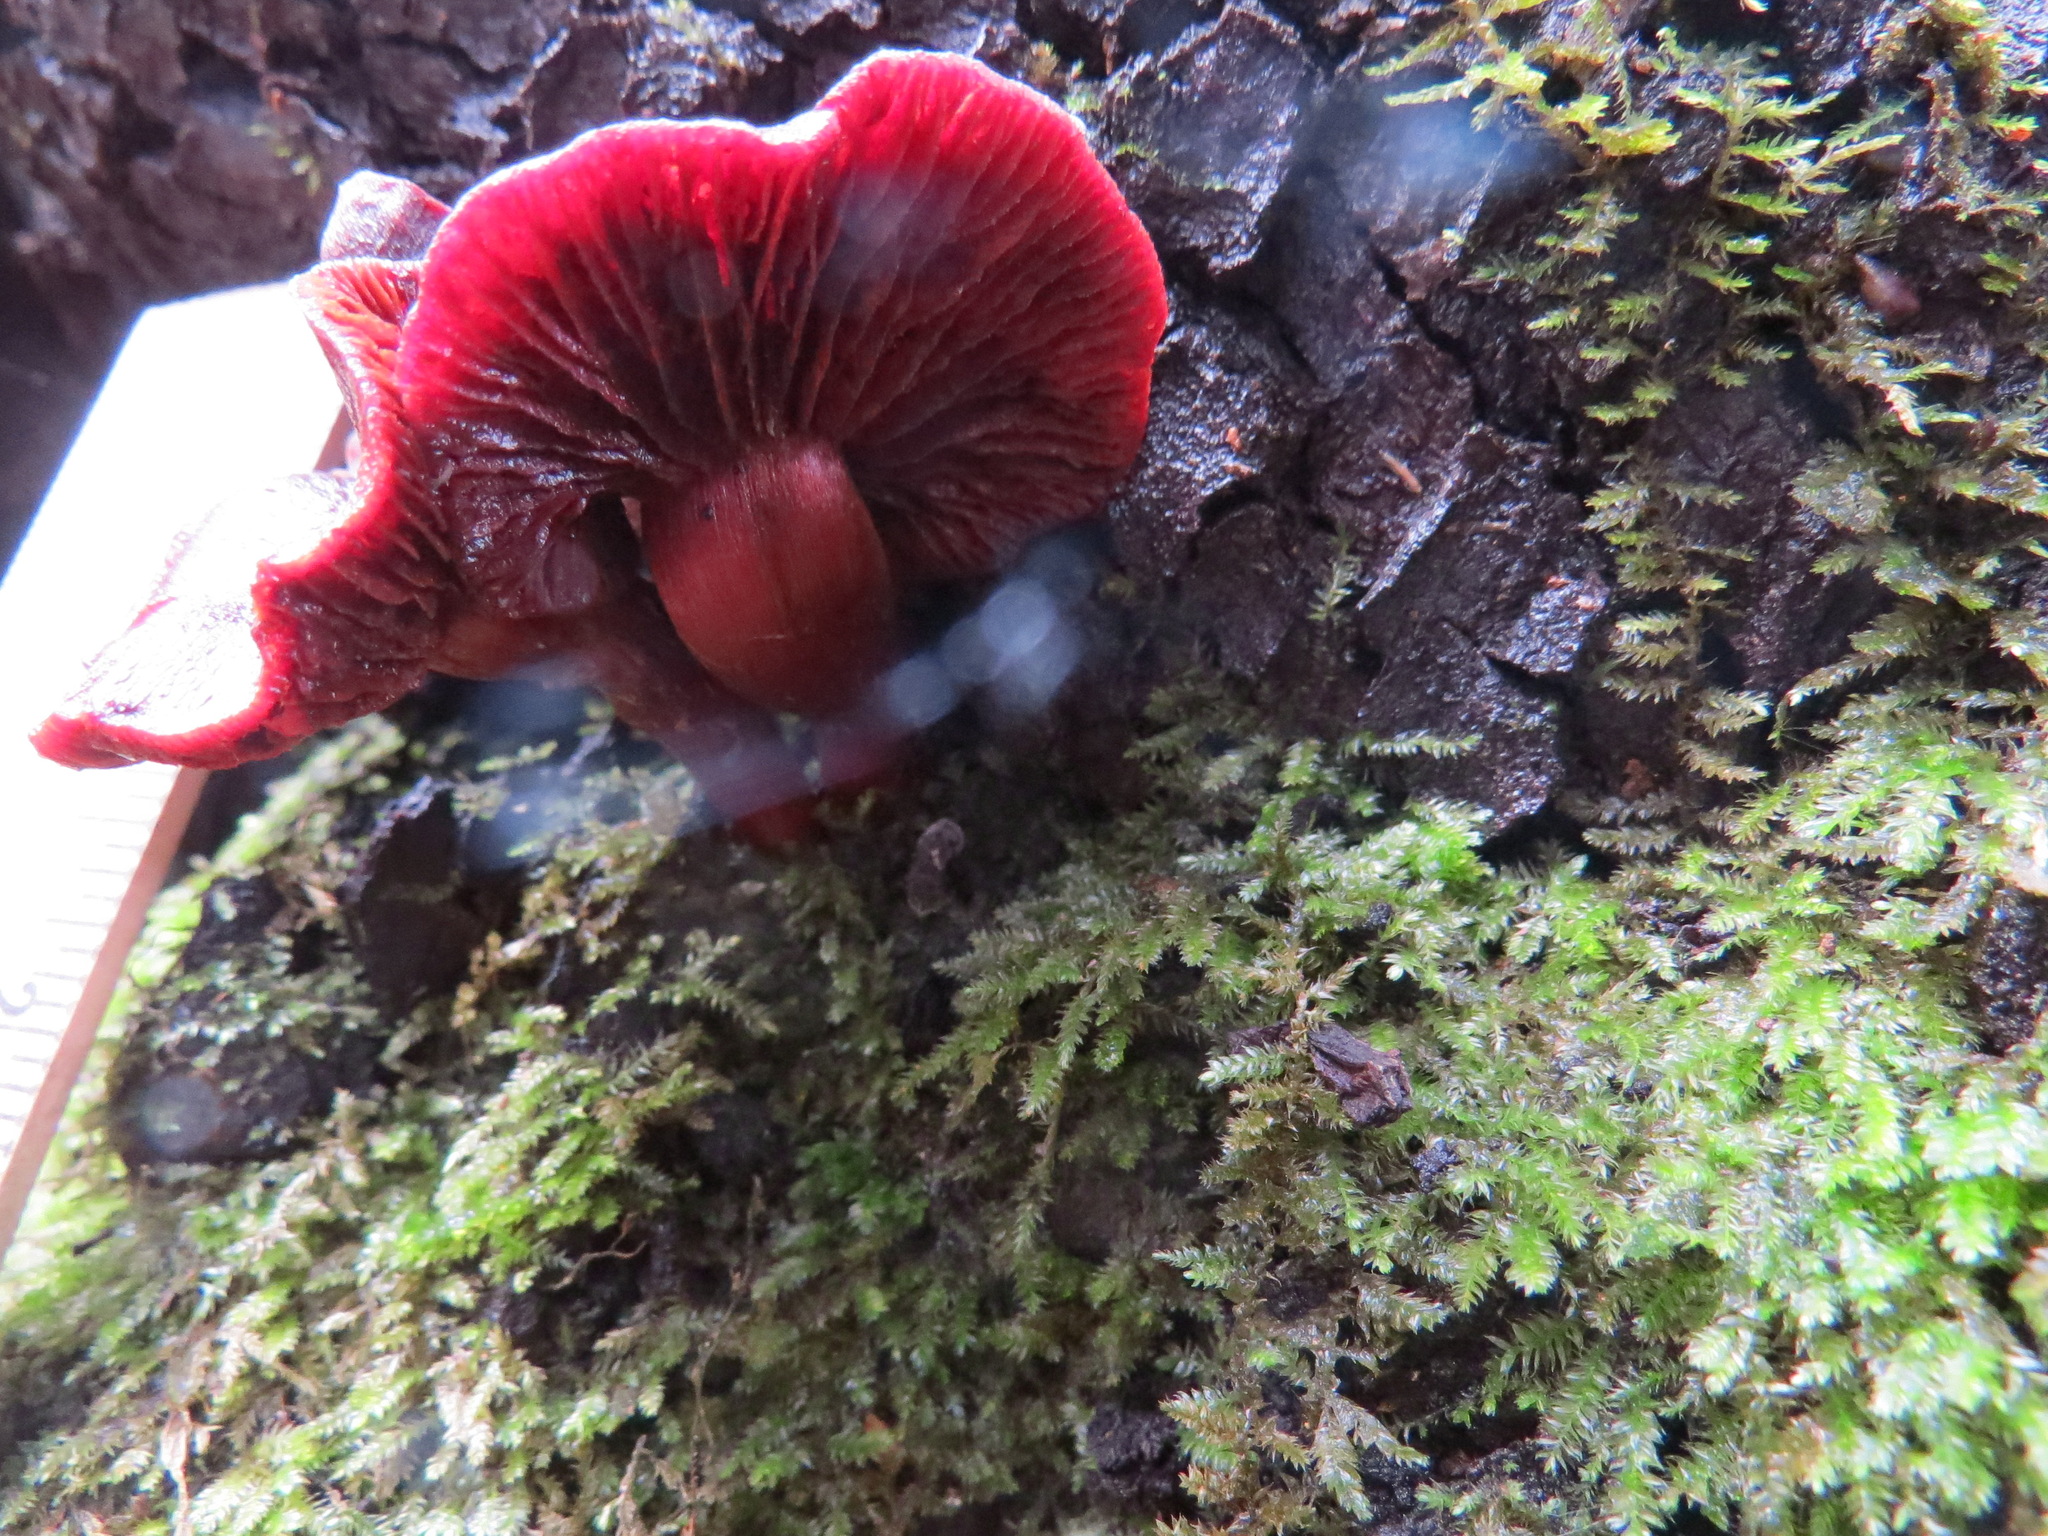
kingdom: Fungi
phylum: Basidiomycota
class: Agaricomycetes
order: Agaricales
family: Tubariaceae
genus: Tubaria
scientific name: Tubaria punicea
